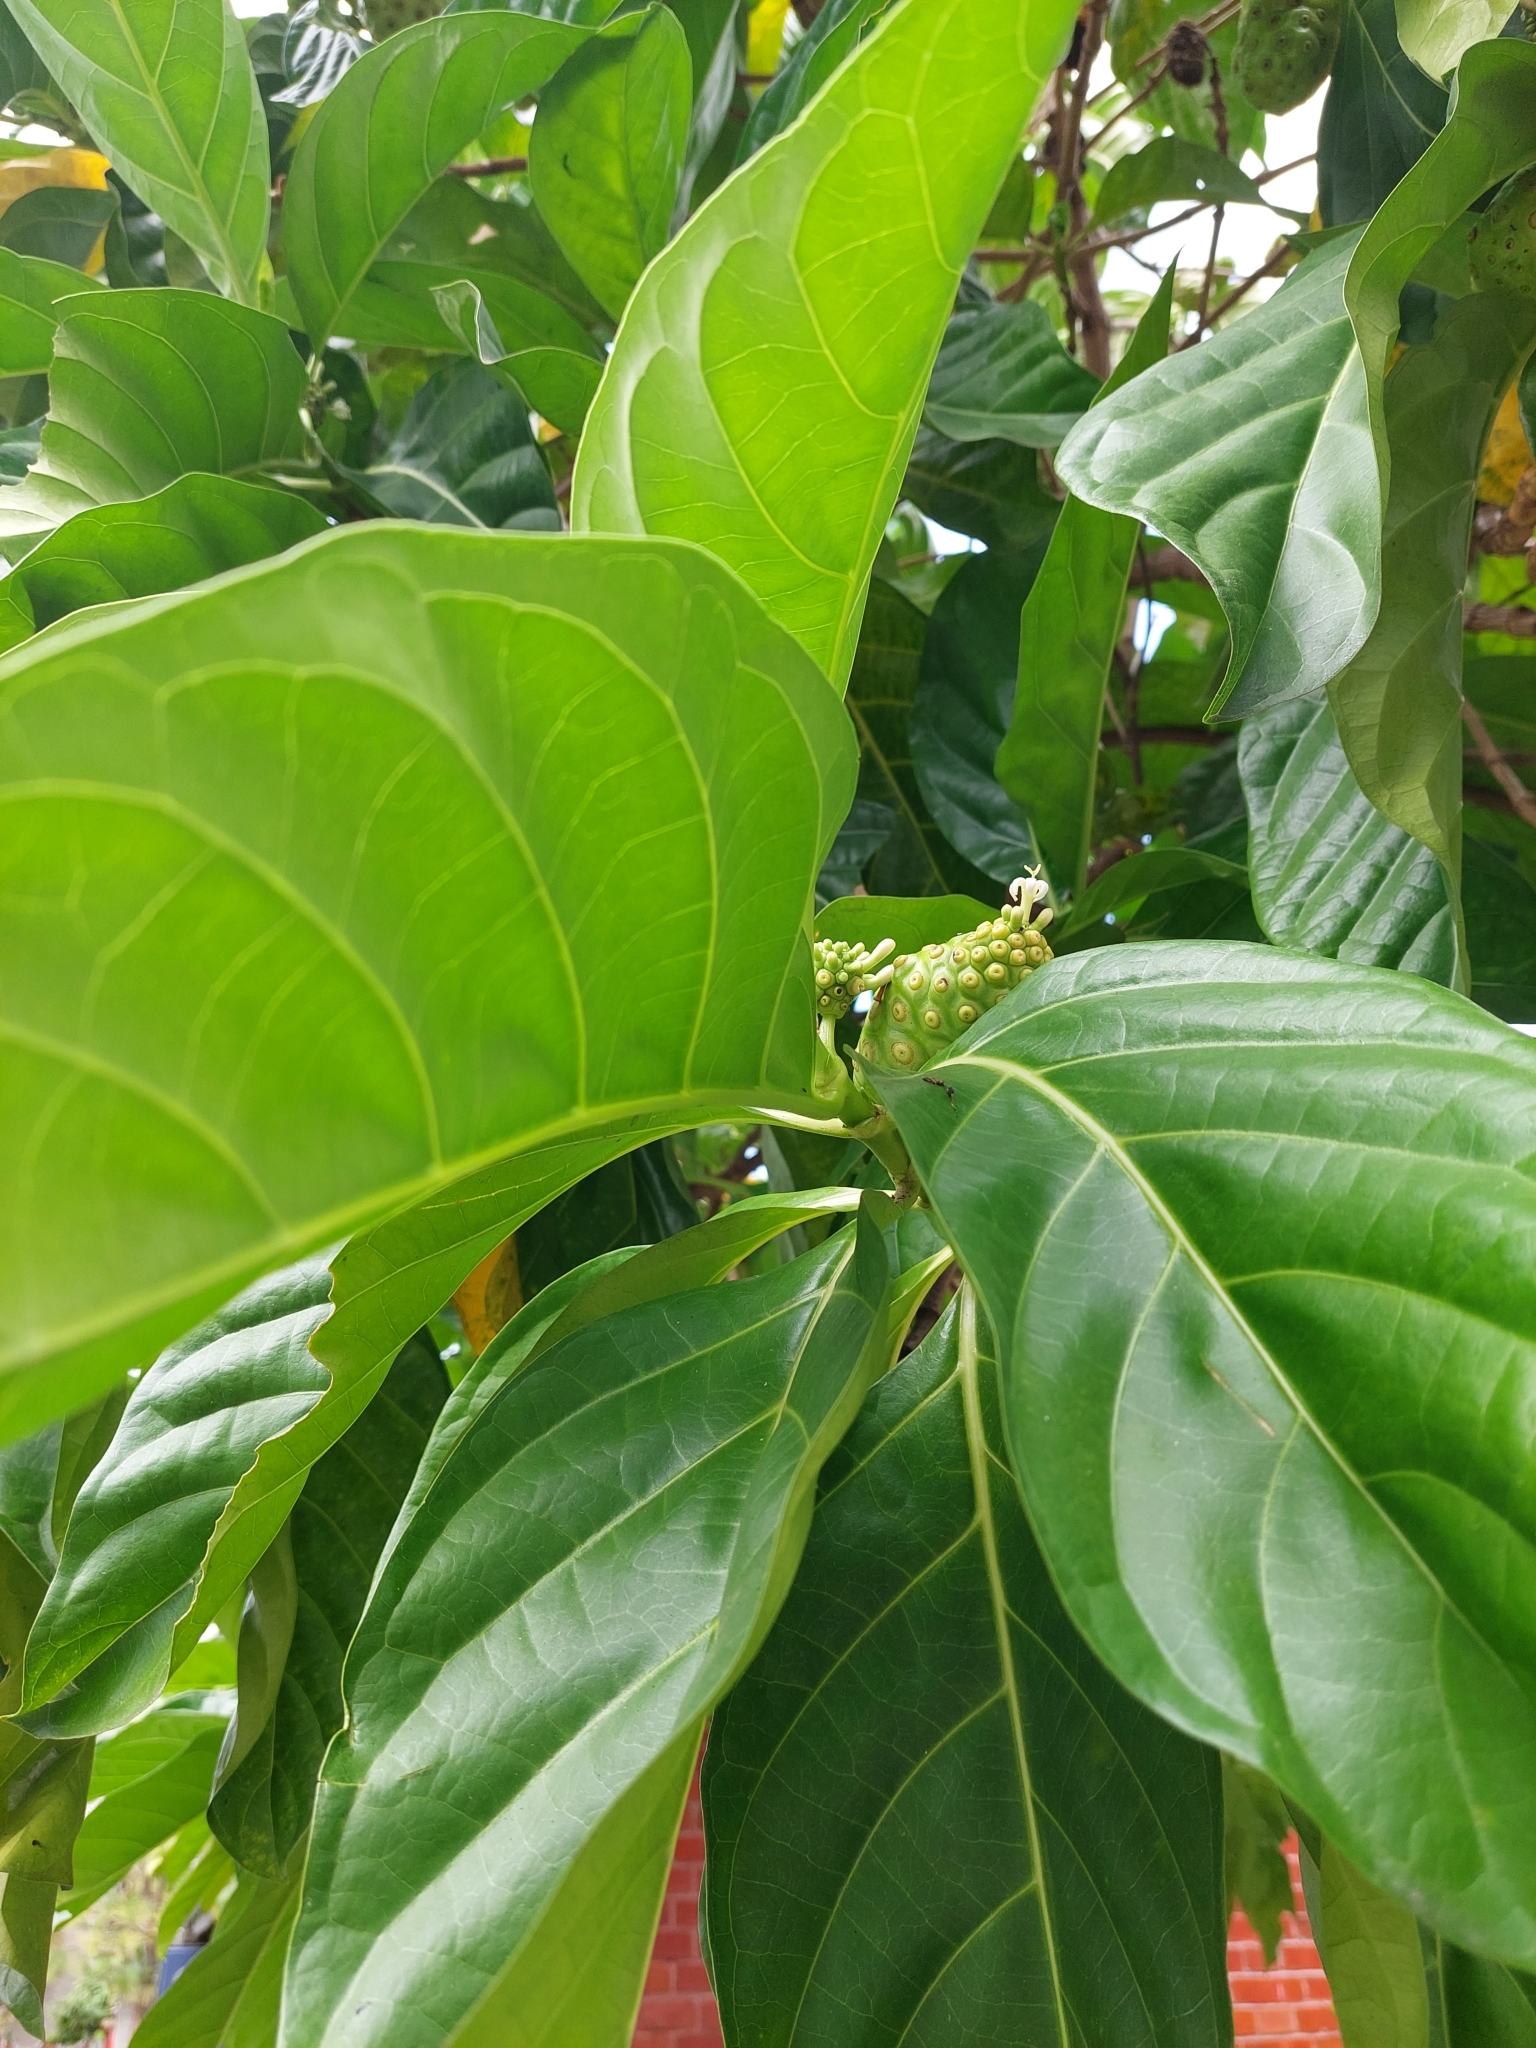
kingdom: Plantae
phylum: Tracheophyta
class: Magnoliopsida
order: Gentianales
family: Rubiaceae
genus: Morinda
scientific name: Morinda citrifolia
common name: Indian-mulberry
